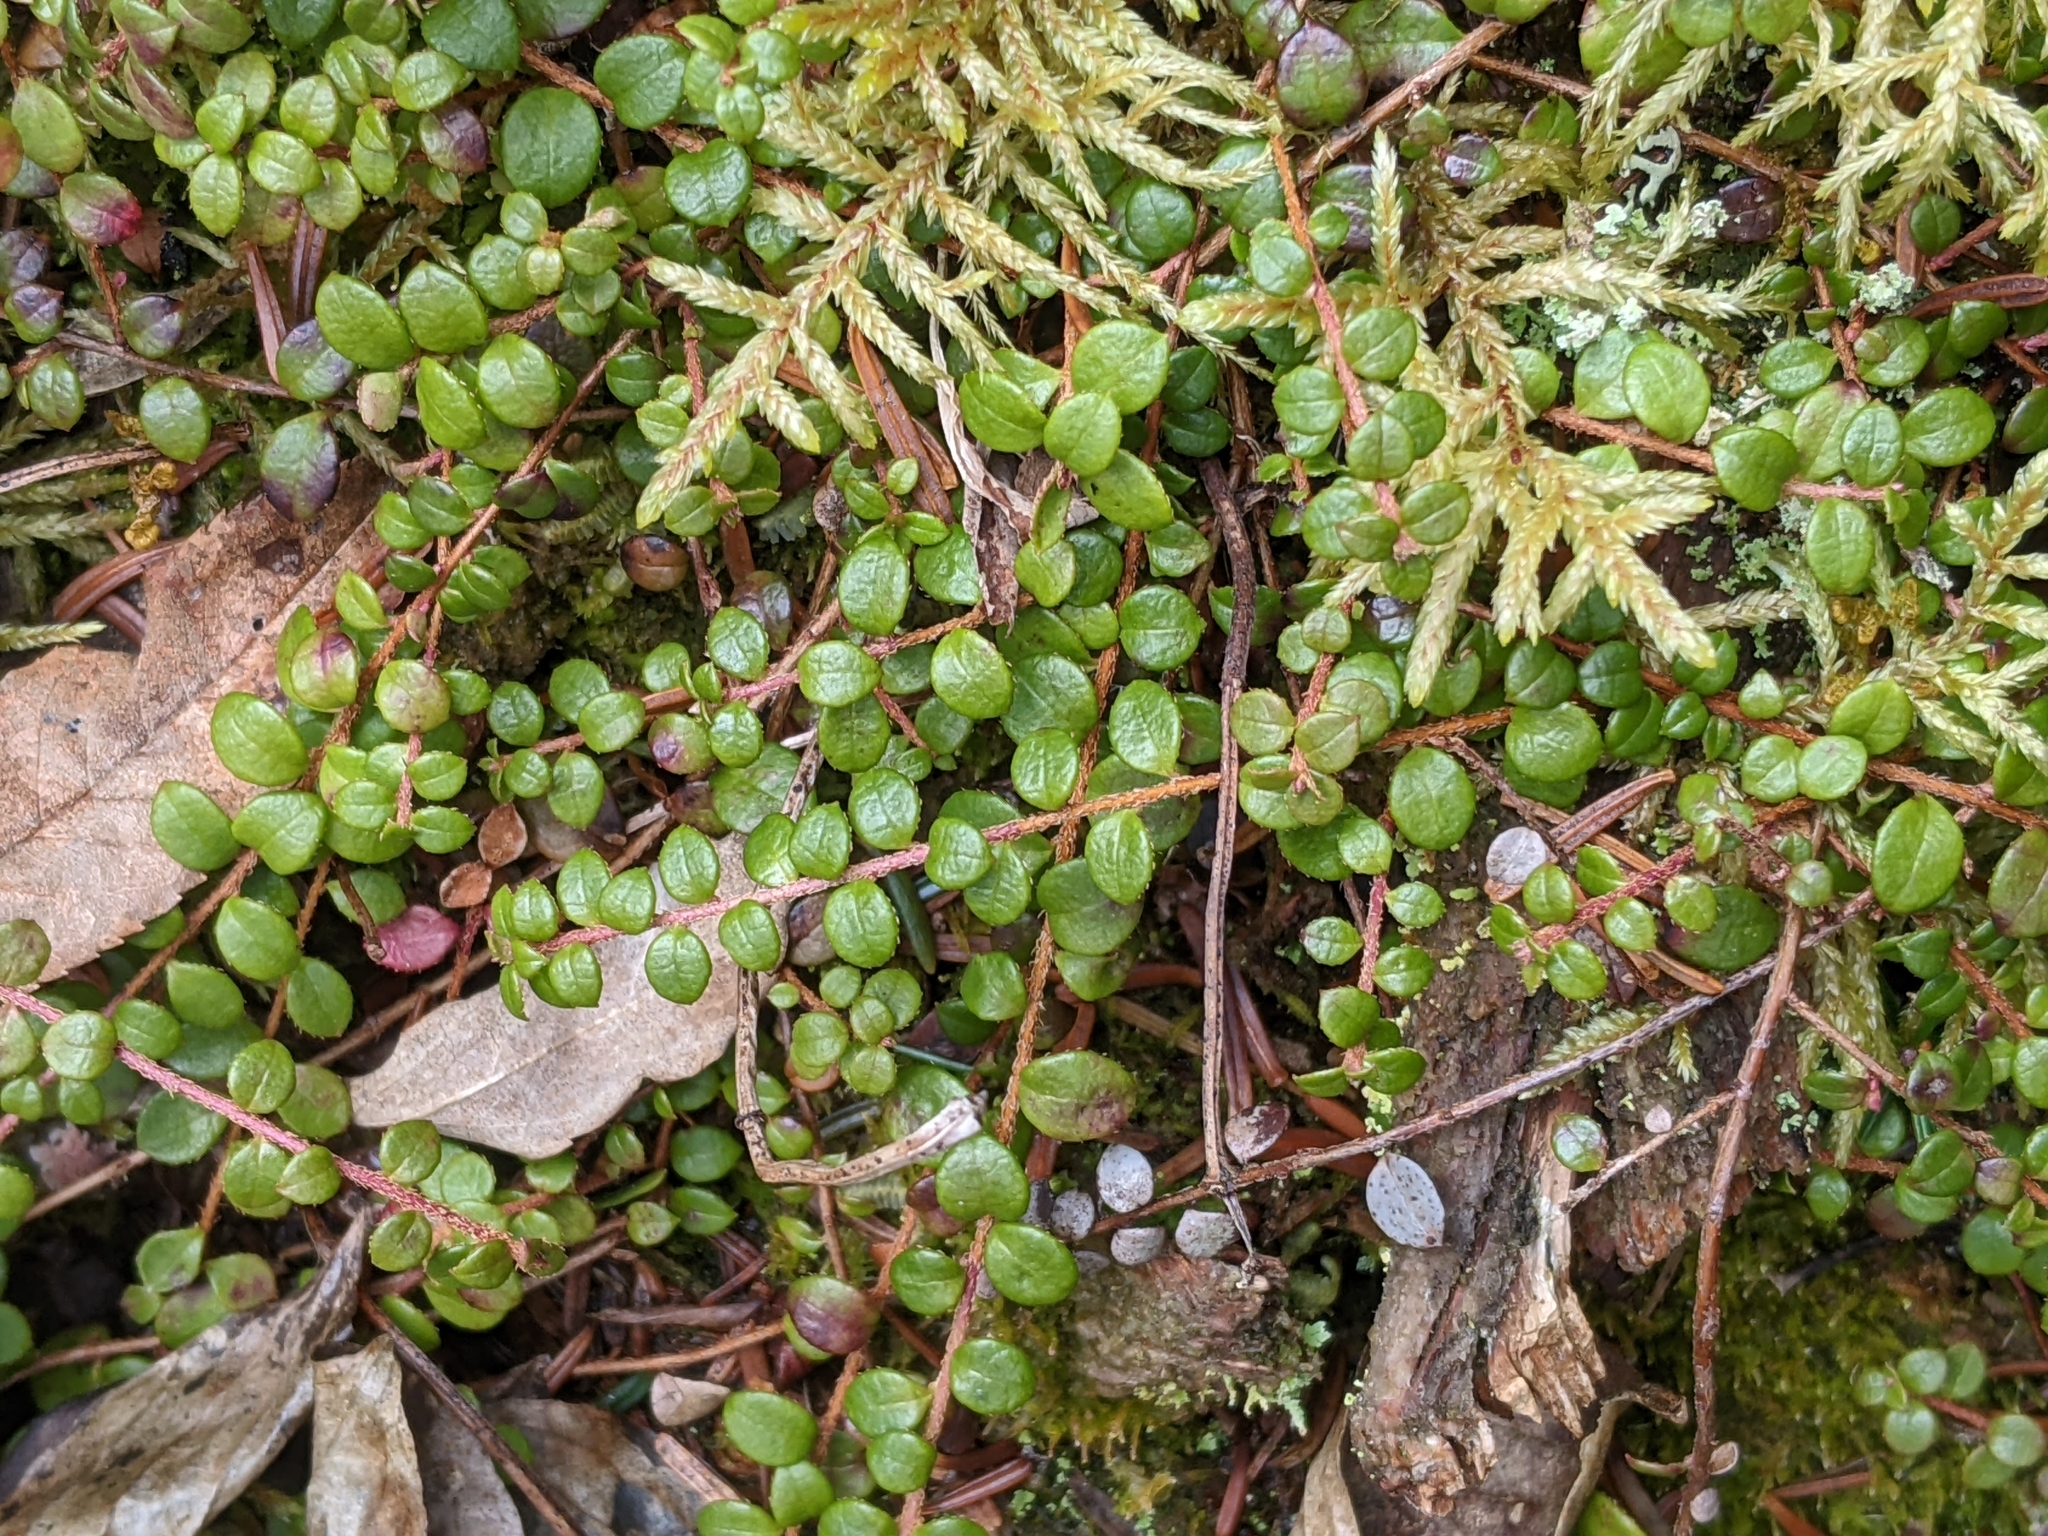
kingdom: Plantae
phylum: Tracheophyta
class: Magnoliopsida
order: Ericales
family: Ericaceae
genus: Gaultheria
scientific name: Gaultheria hispidula
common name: Cancer wintergreen
